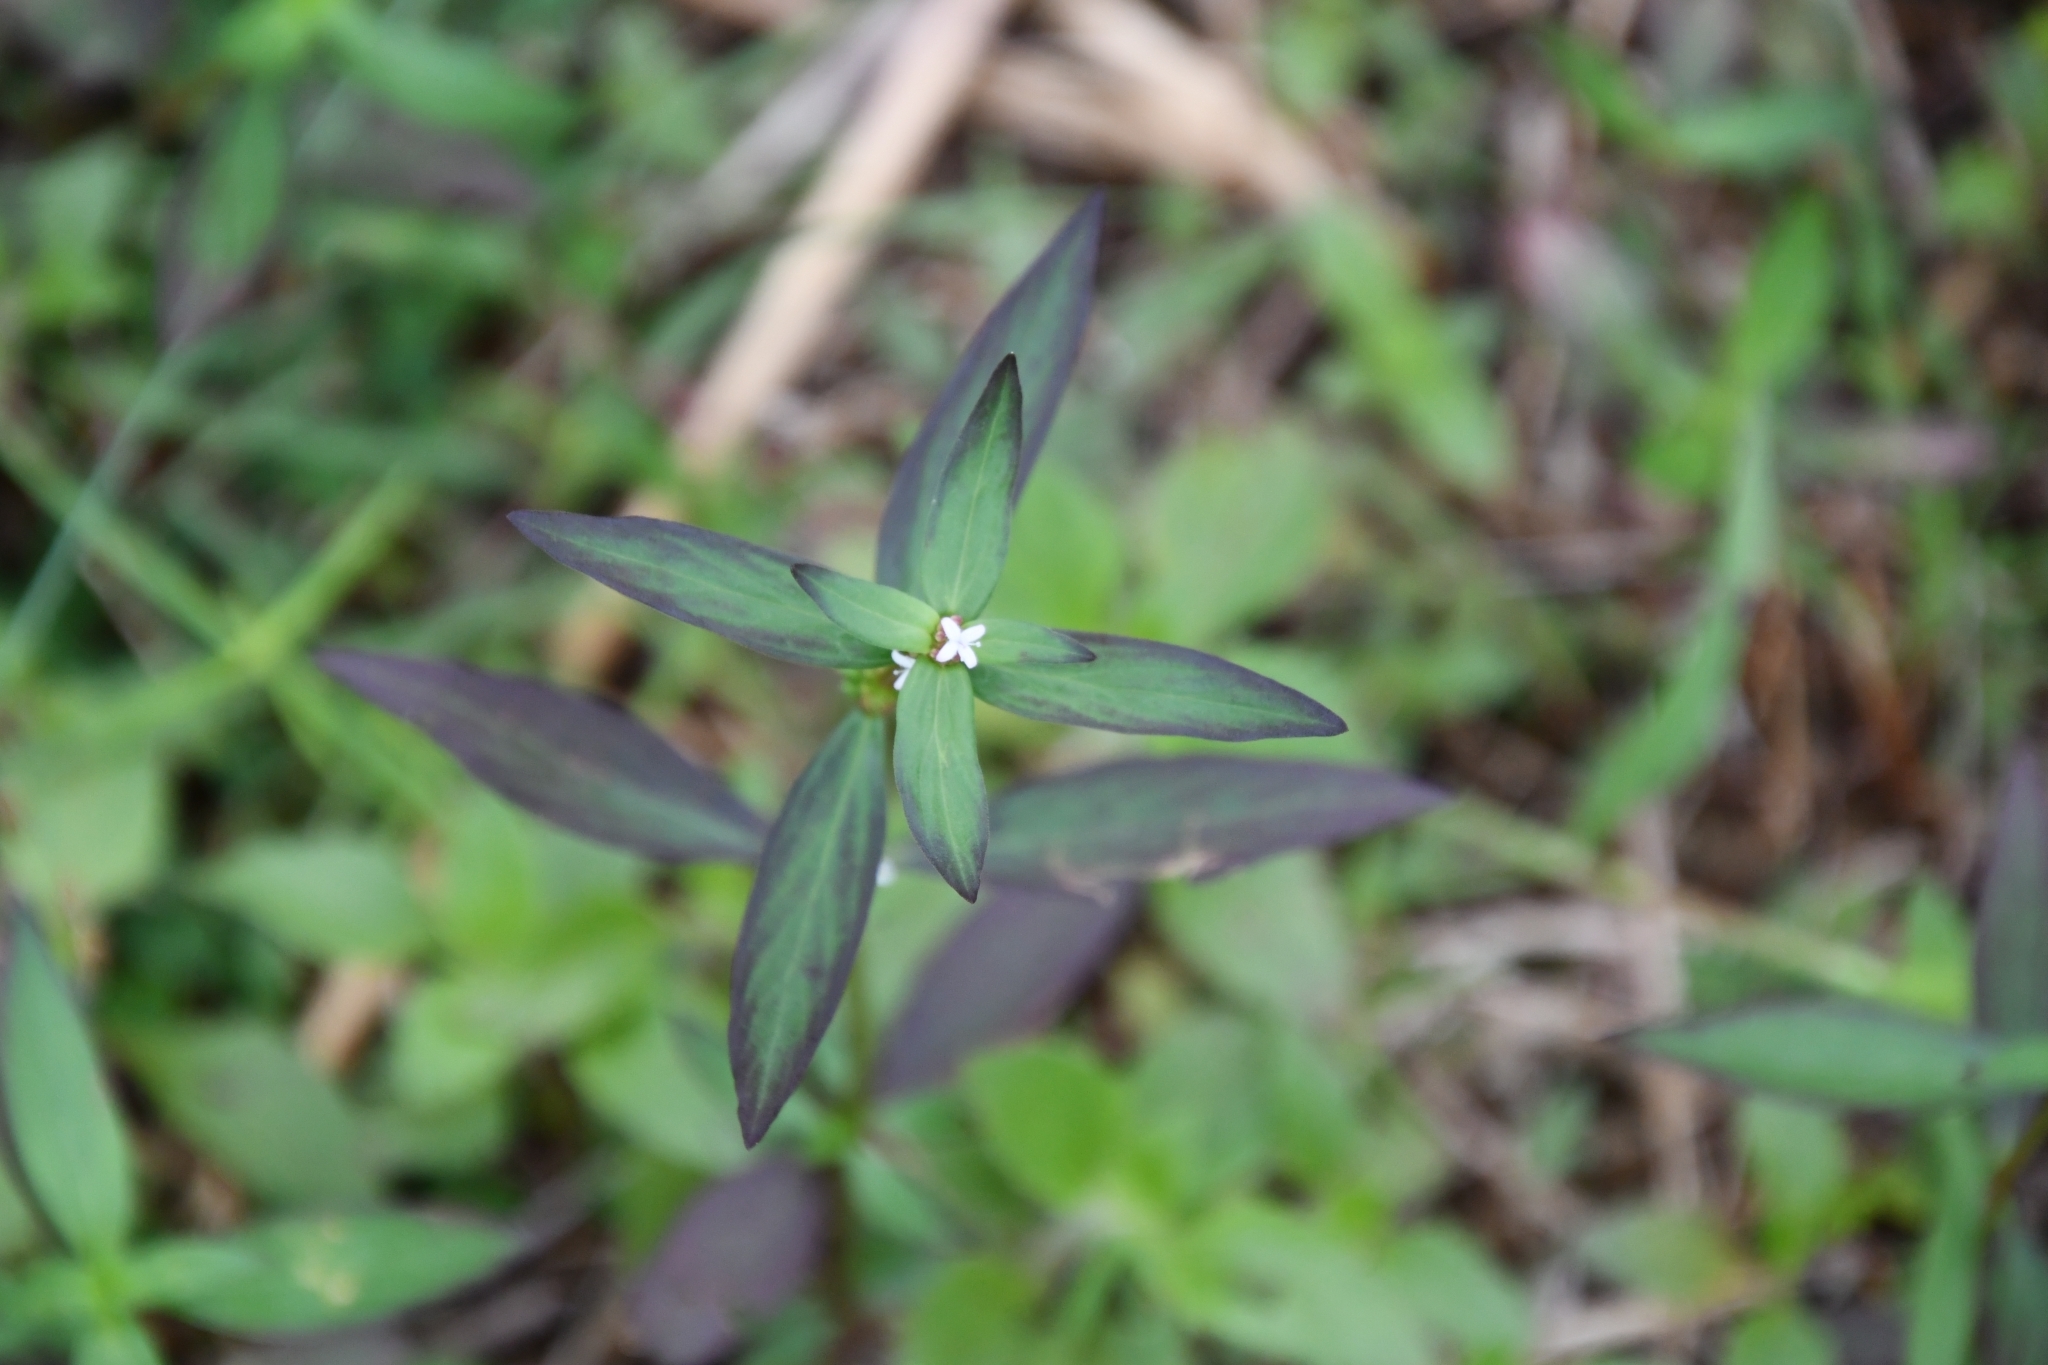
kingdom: Plantae
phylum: Tracheophyta
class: Magnoliopsida
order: Gentianales
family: Rubiaceae
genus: Spermacoce
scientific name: Spermacoce remota
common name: Woodland false buttonweed
